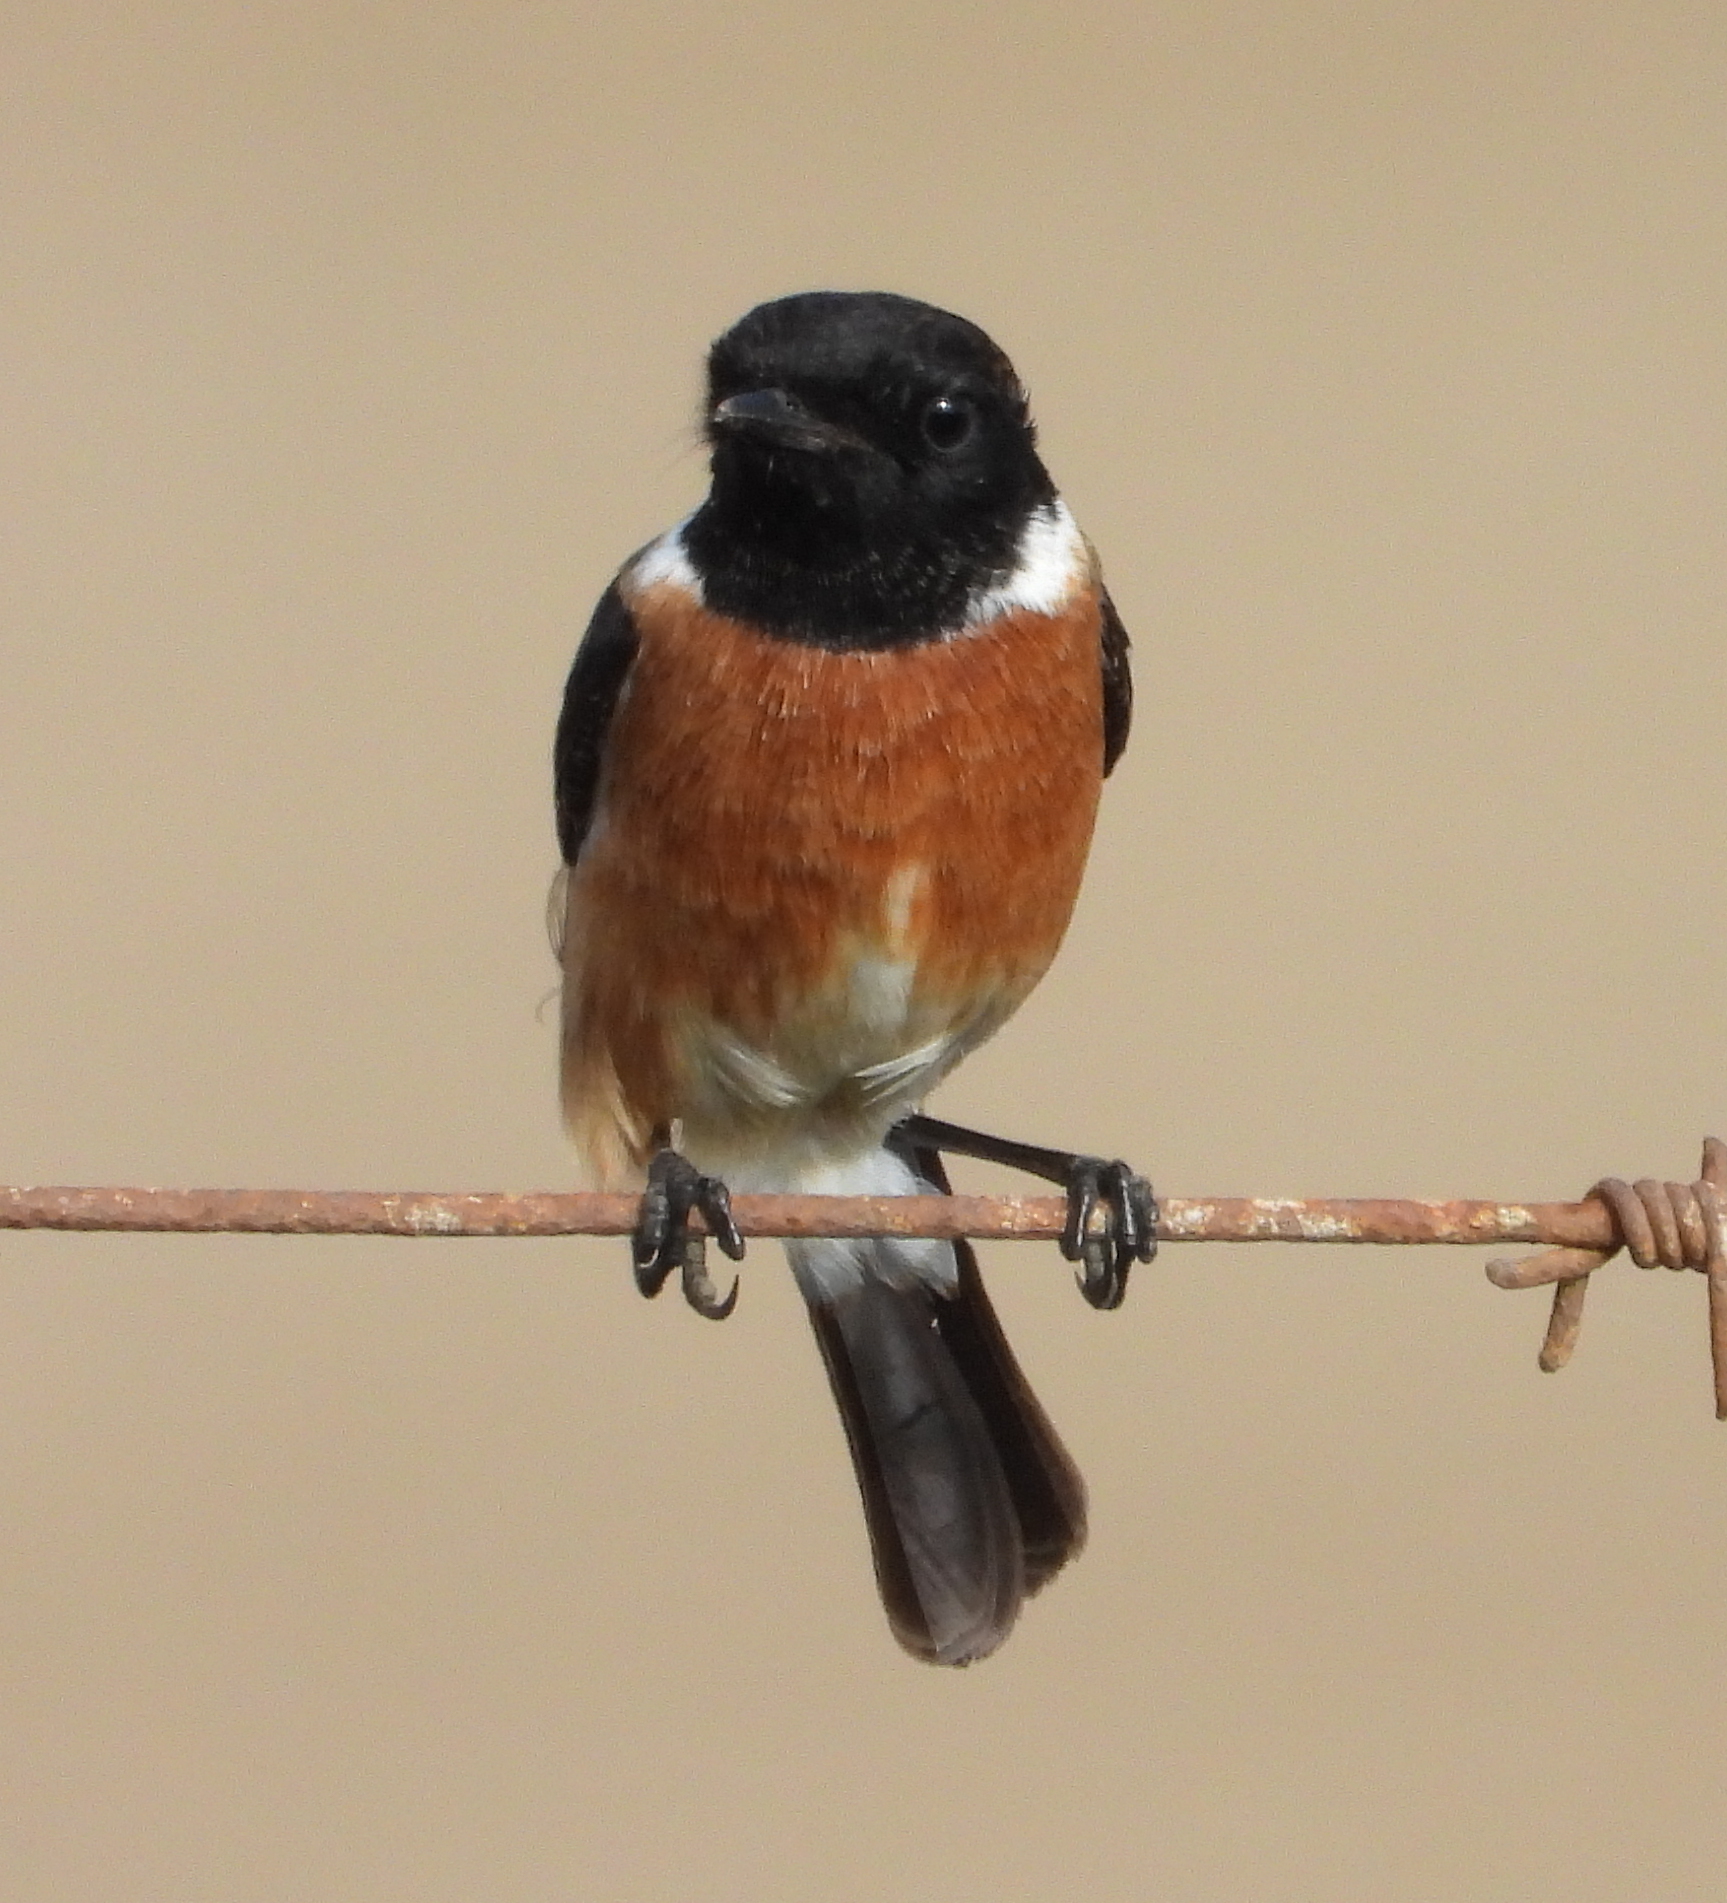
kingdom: Animalia
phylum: Chordata
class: Aves
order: Passeriformes
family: Muscicapidae
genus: Saxicola
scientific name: Saxicola torquatus
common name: African stonechat
